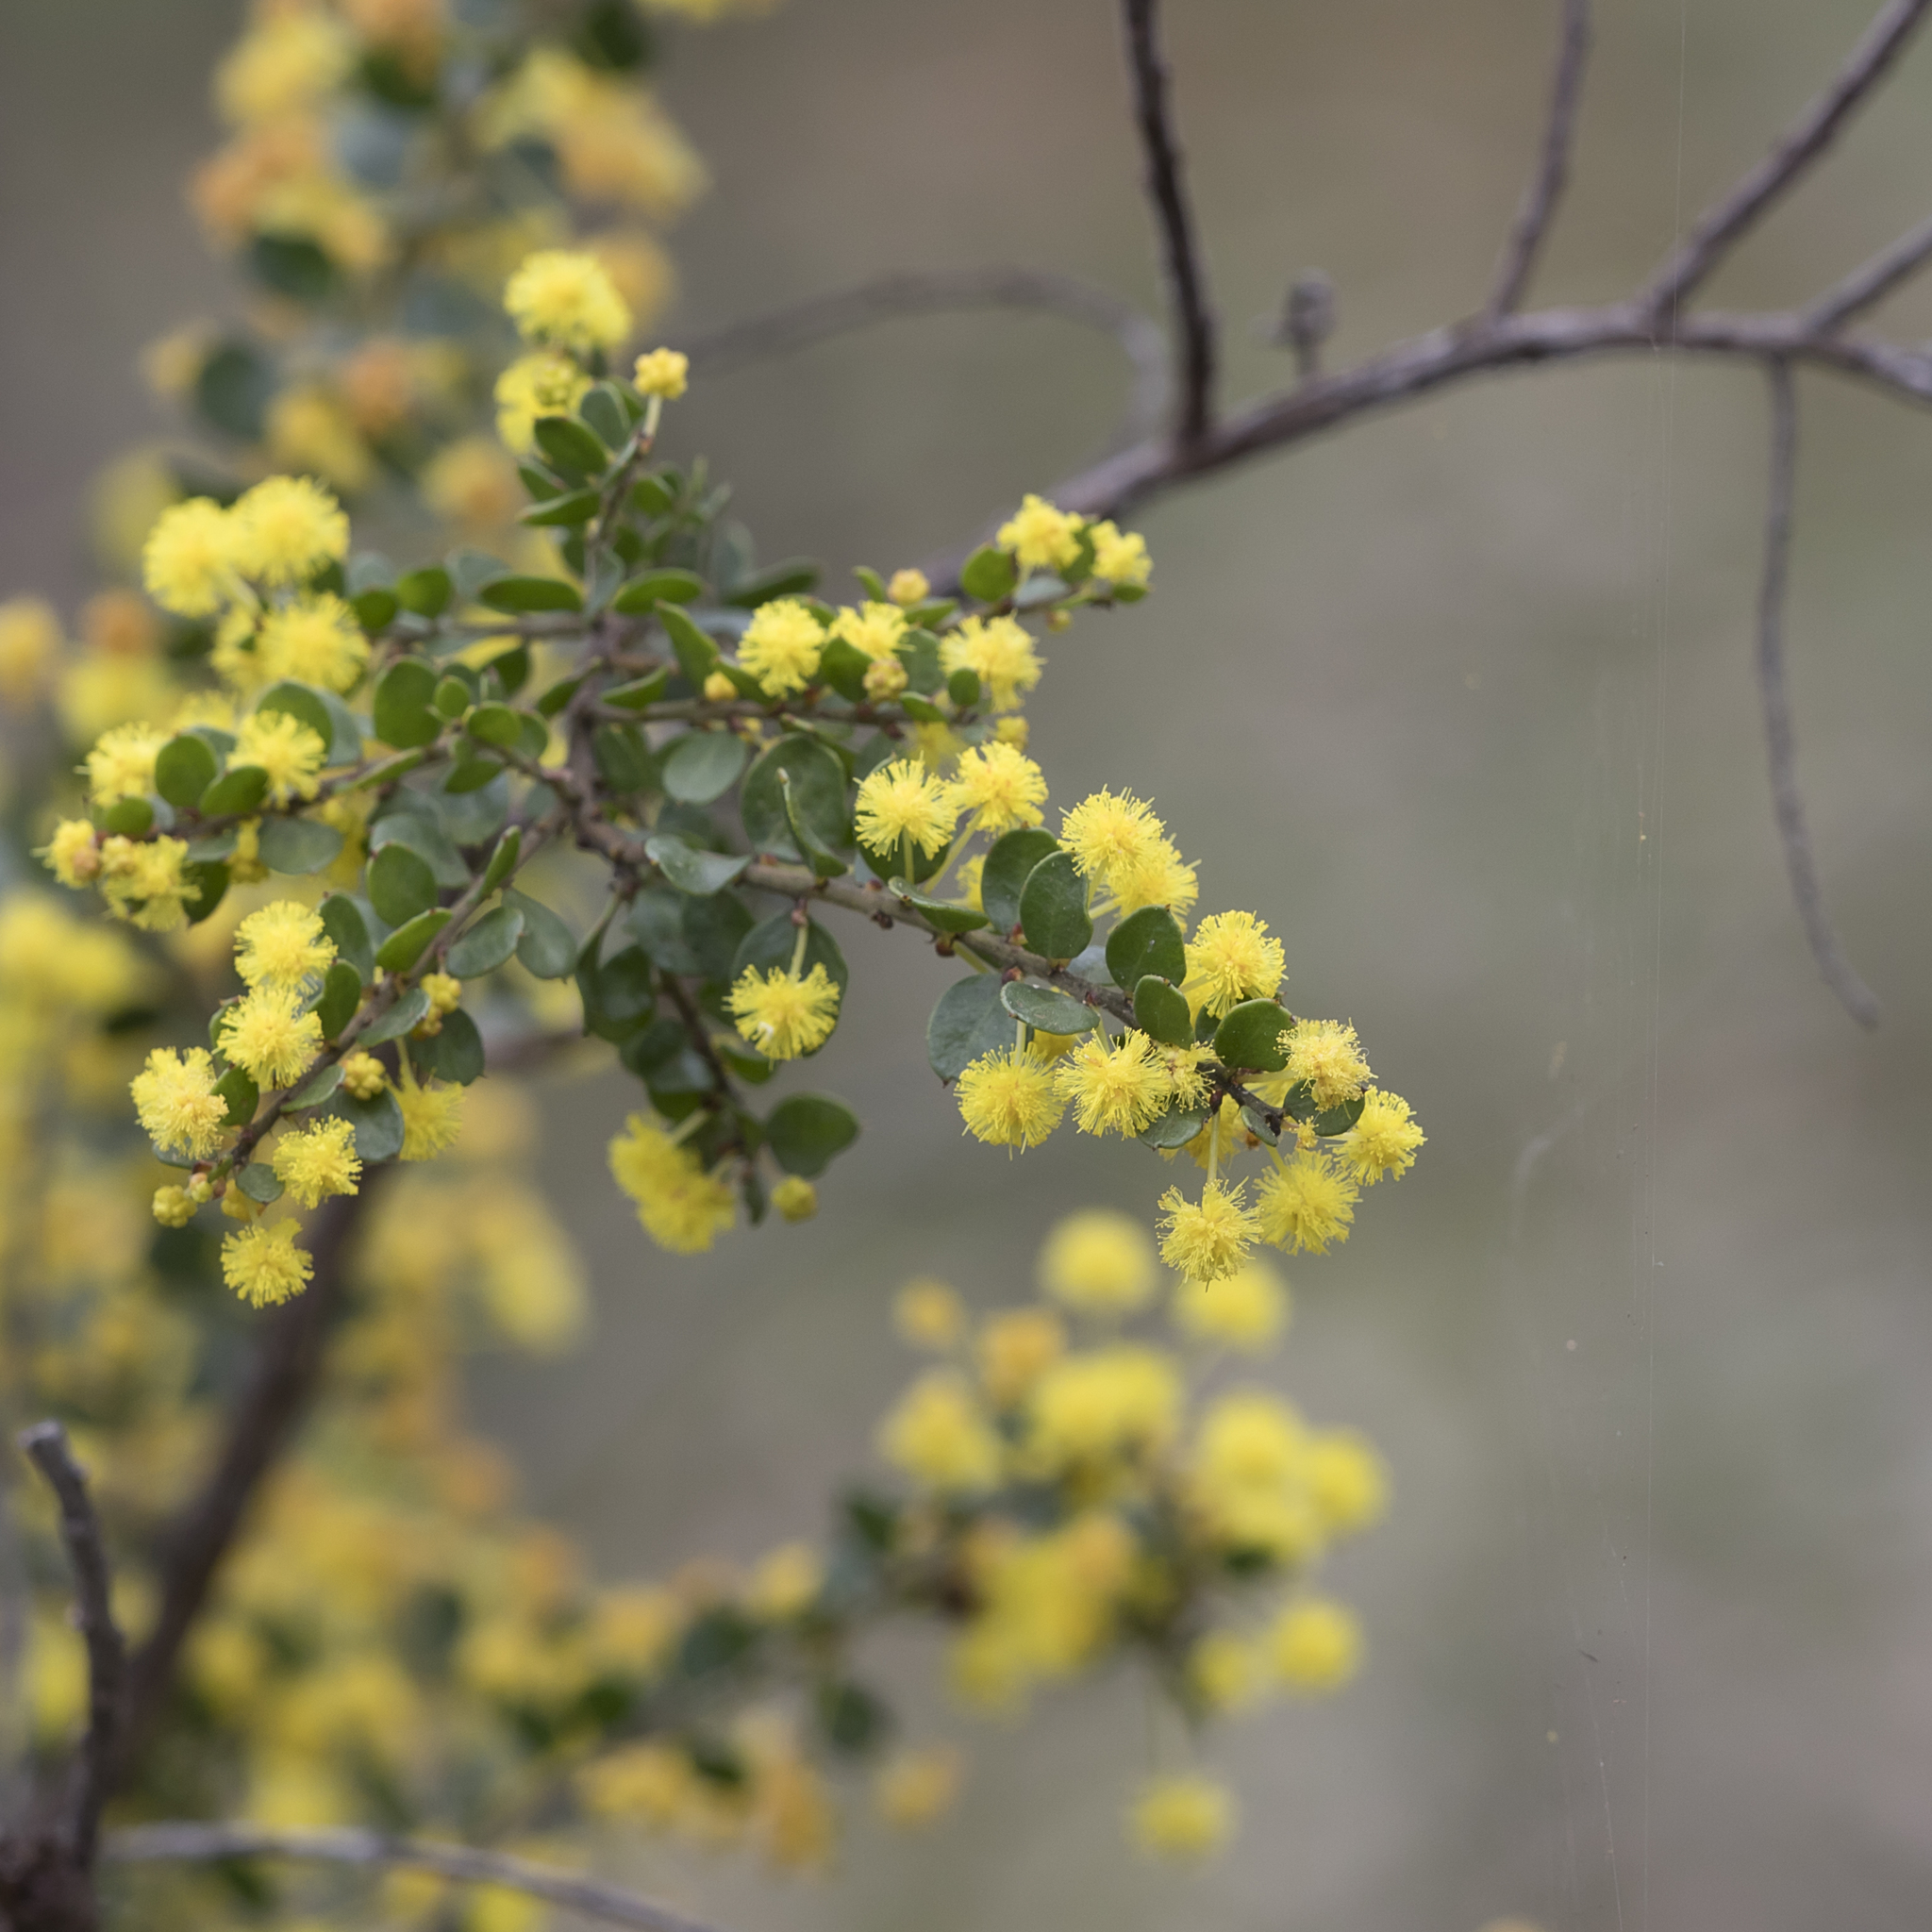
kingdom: Plantae
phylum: Tracheophyta
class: Magnoliopsida
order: Fabales
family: Fabaceae
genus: Acacia
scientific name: Acacia acinacea
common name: Gold-dust acacia
